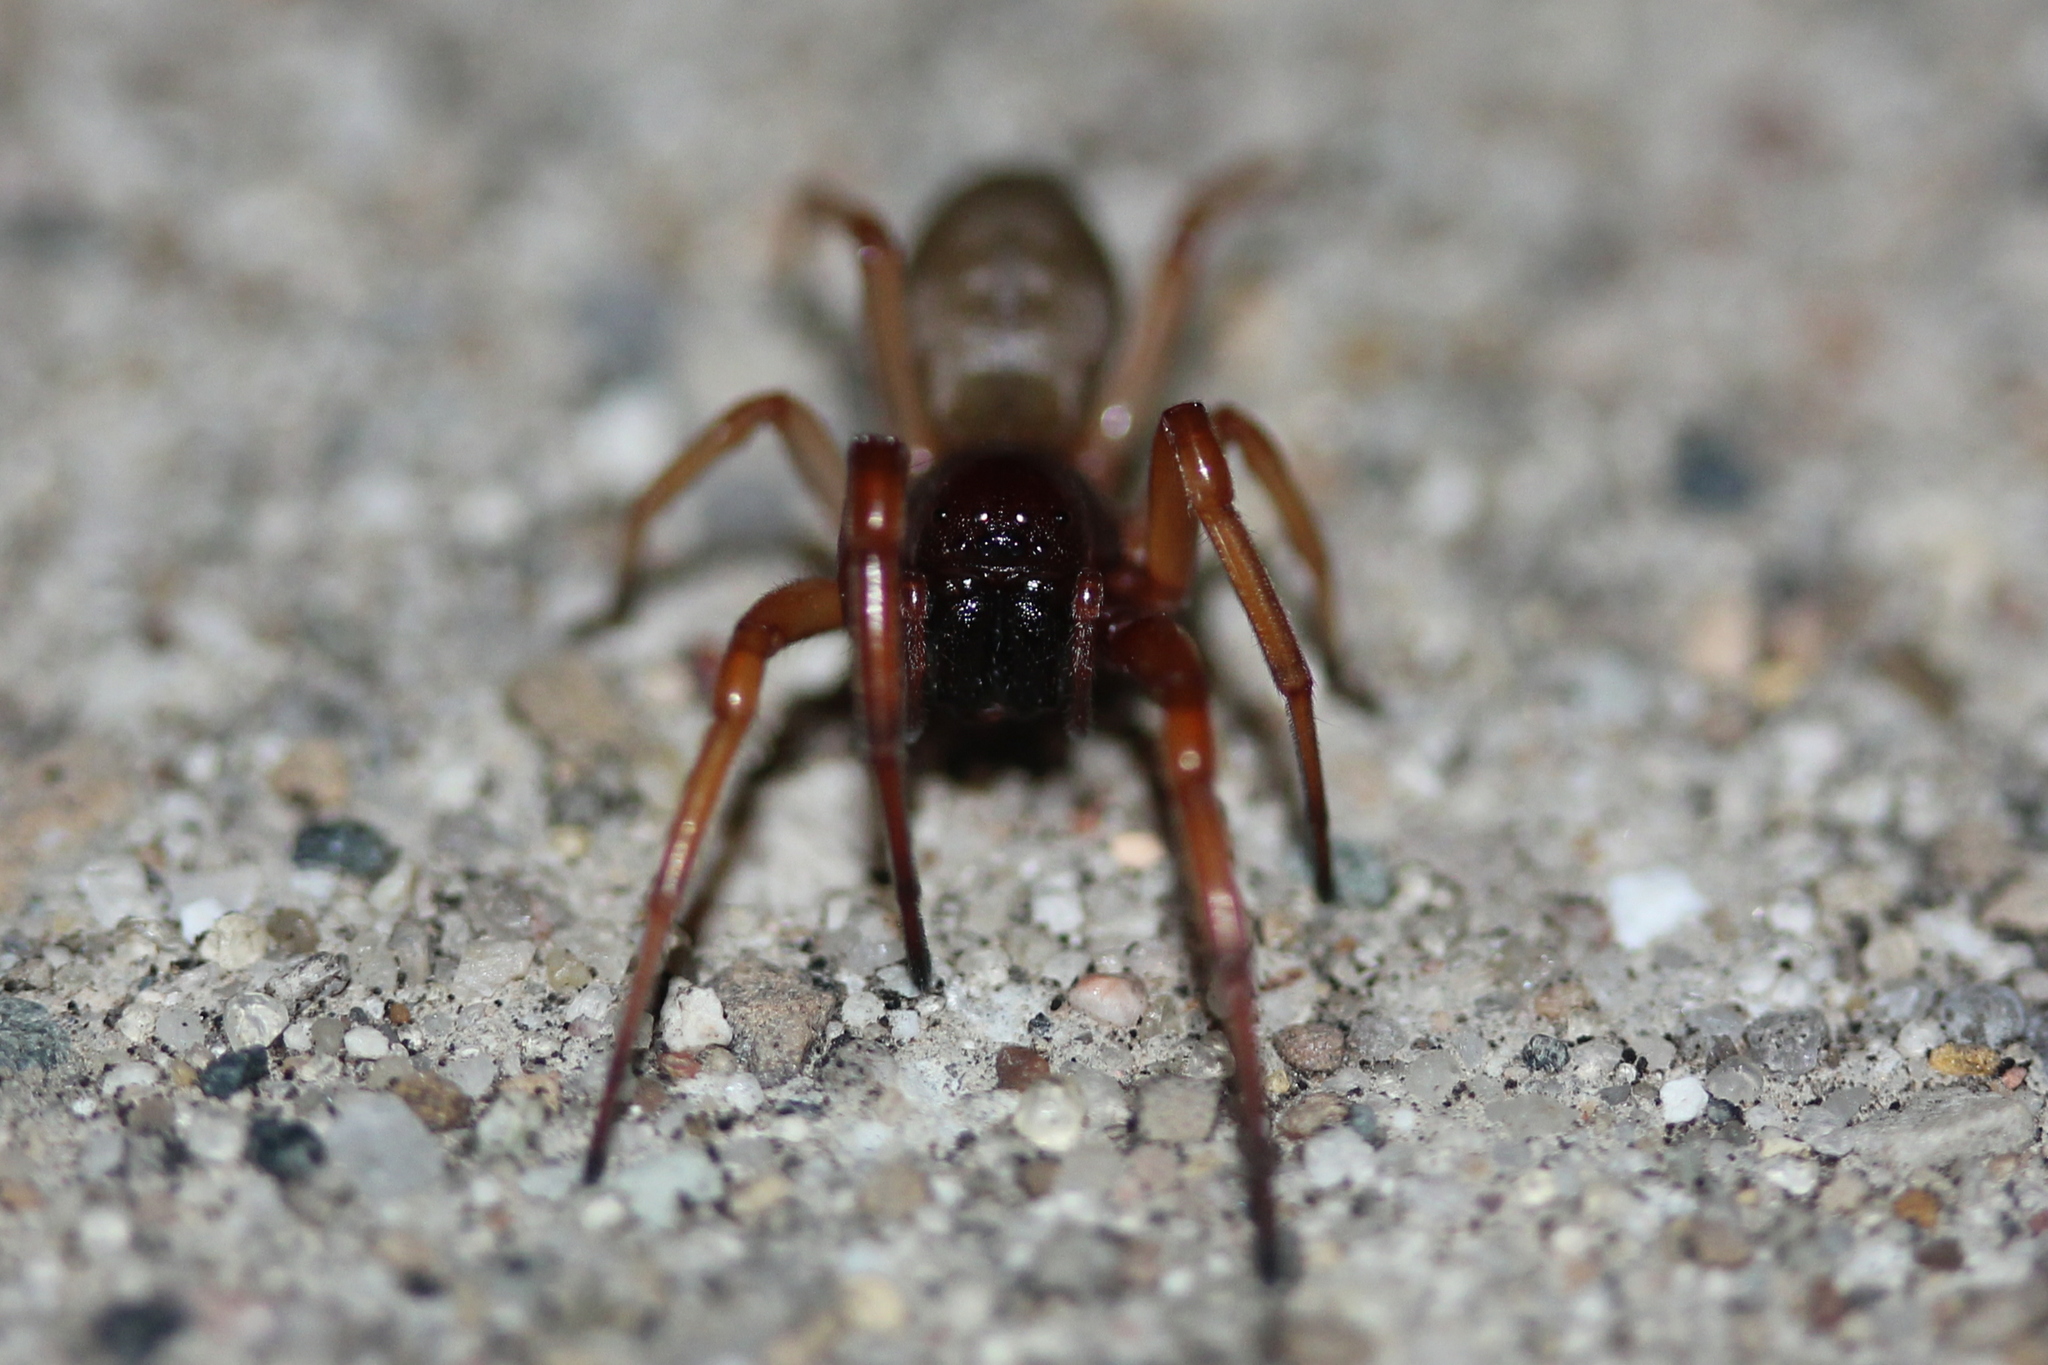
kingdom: Animalia
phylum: Arthropoda
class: Arachnida
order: Araneae
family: Trachelidae
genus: Trachelas
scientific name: Trachelas tranquillus
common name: Broad-faced sac spider
